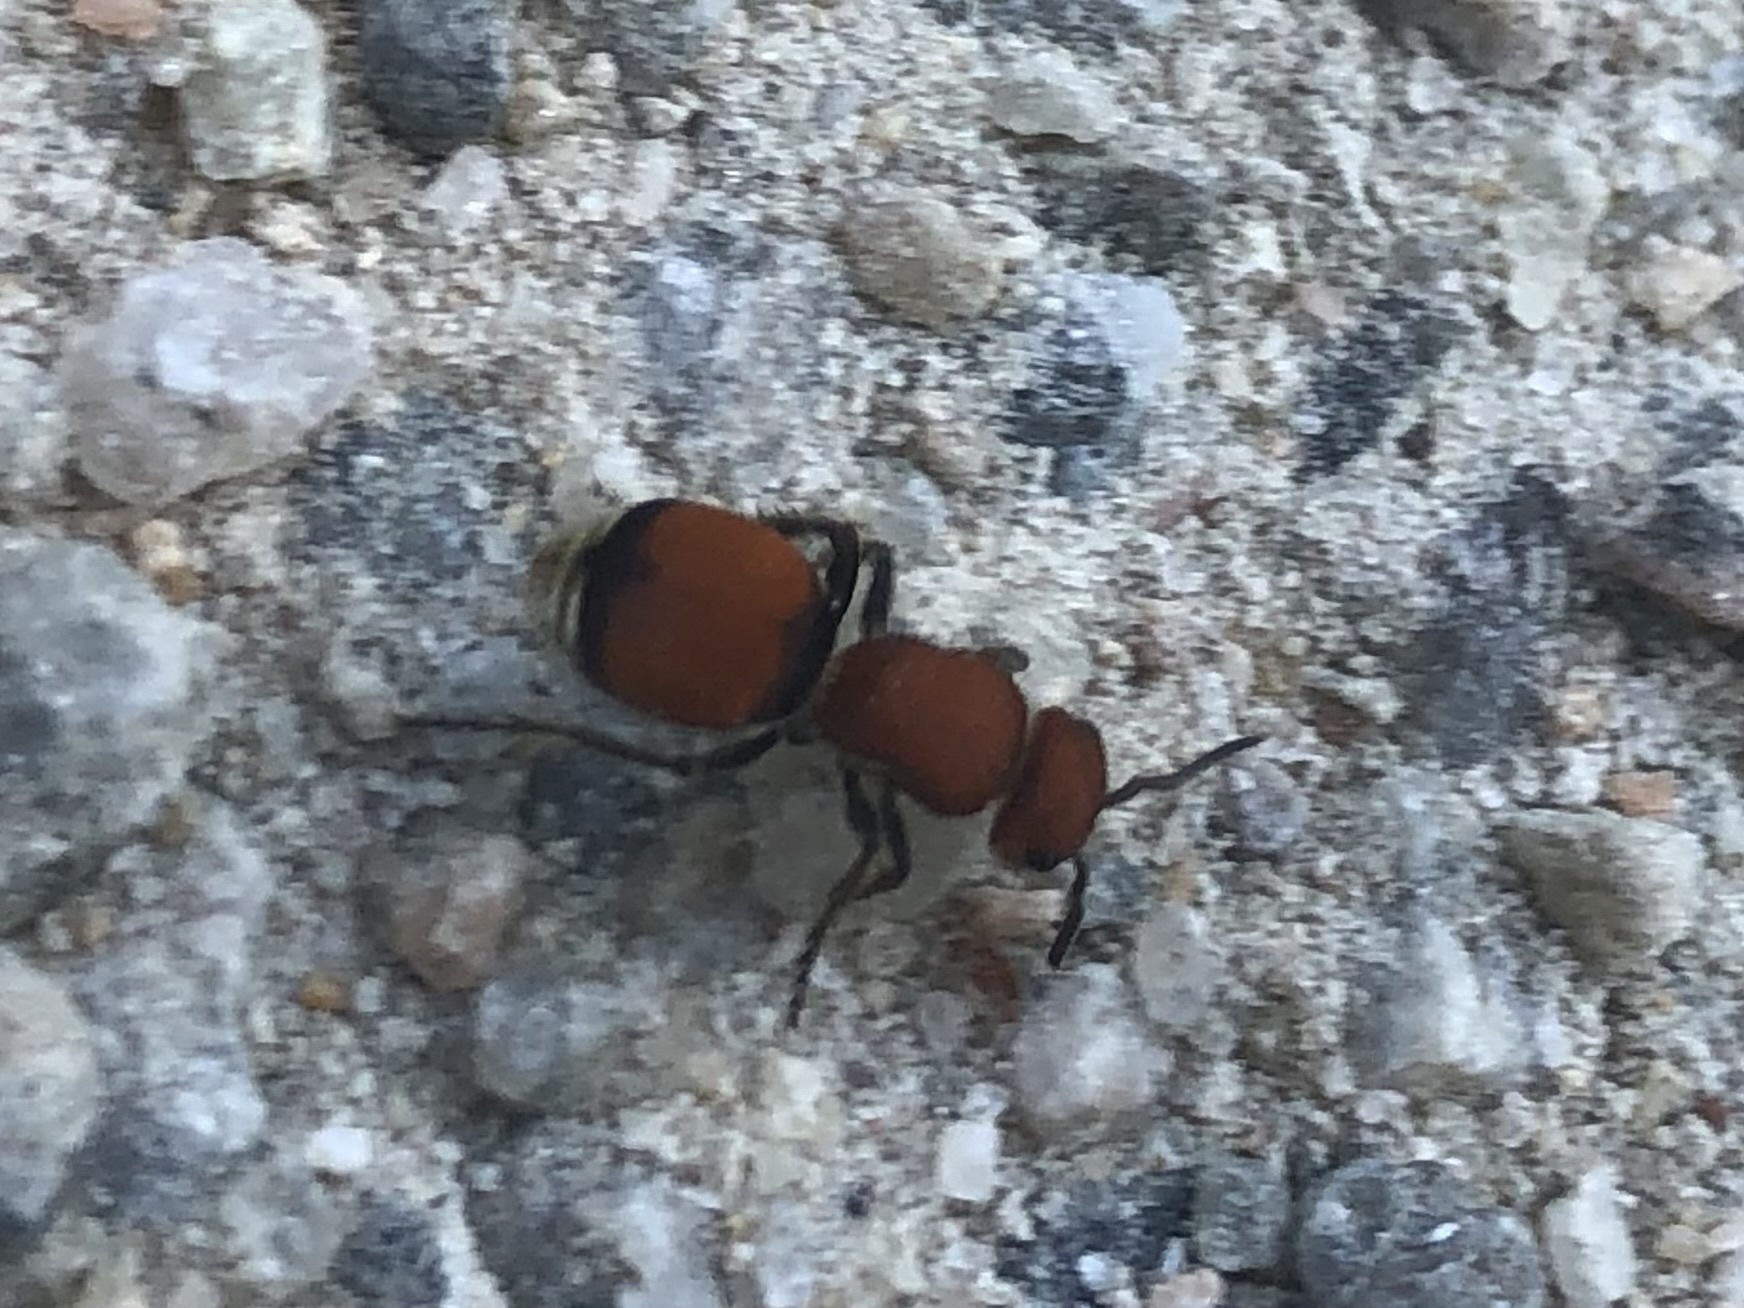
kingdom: Animalia
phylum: Arthropoda
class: Insecta
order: Hymenoptera
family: Mutillidae
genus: Pseudomethoca
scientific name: Pseudomethoca
